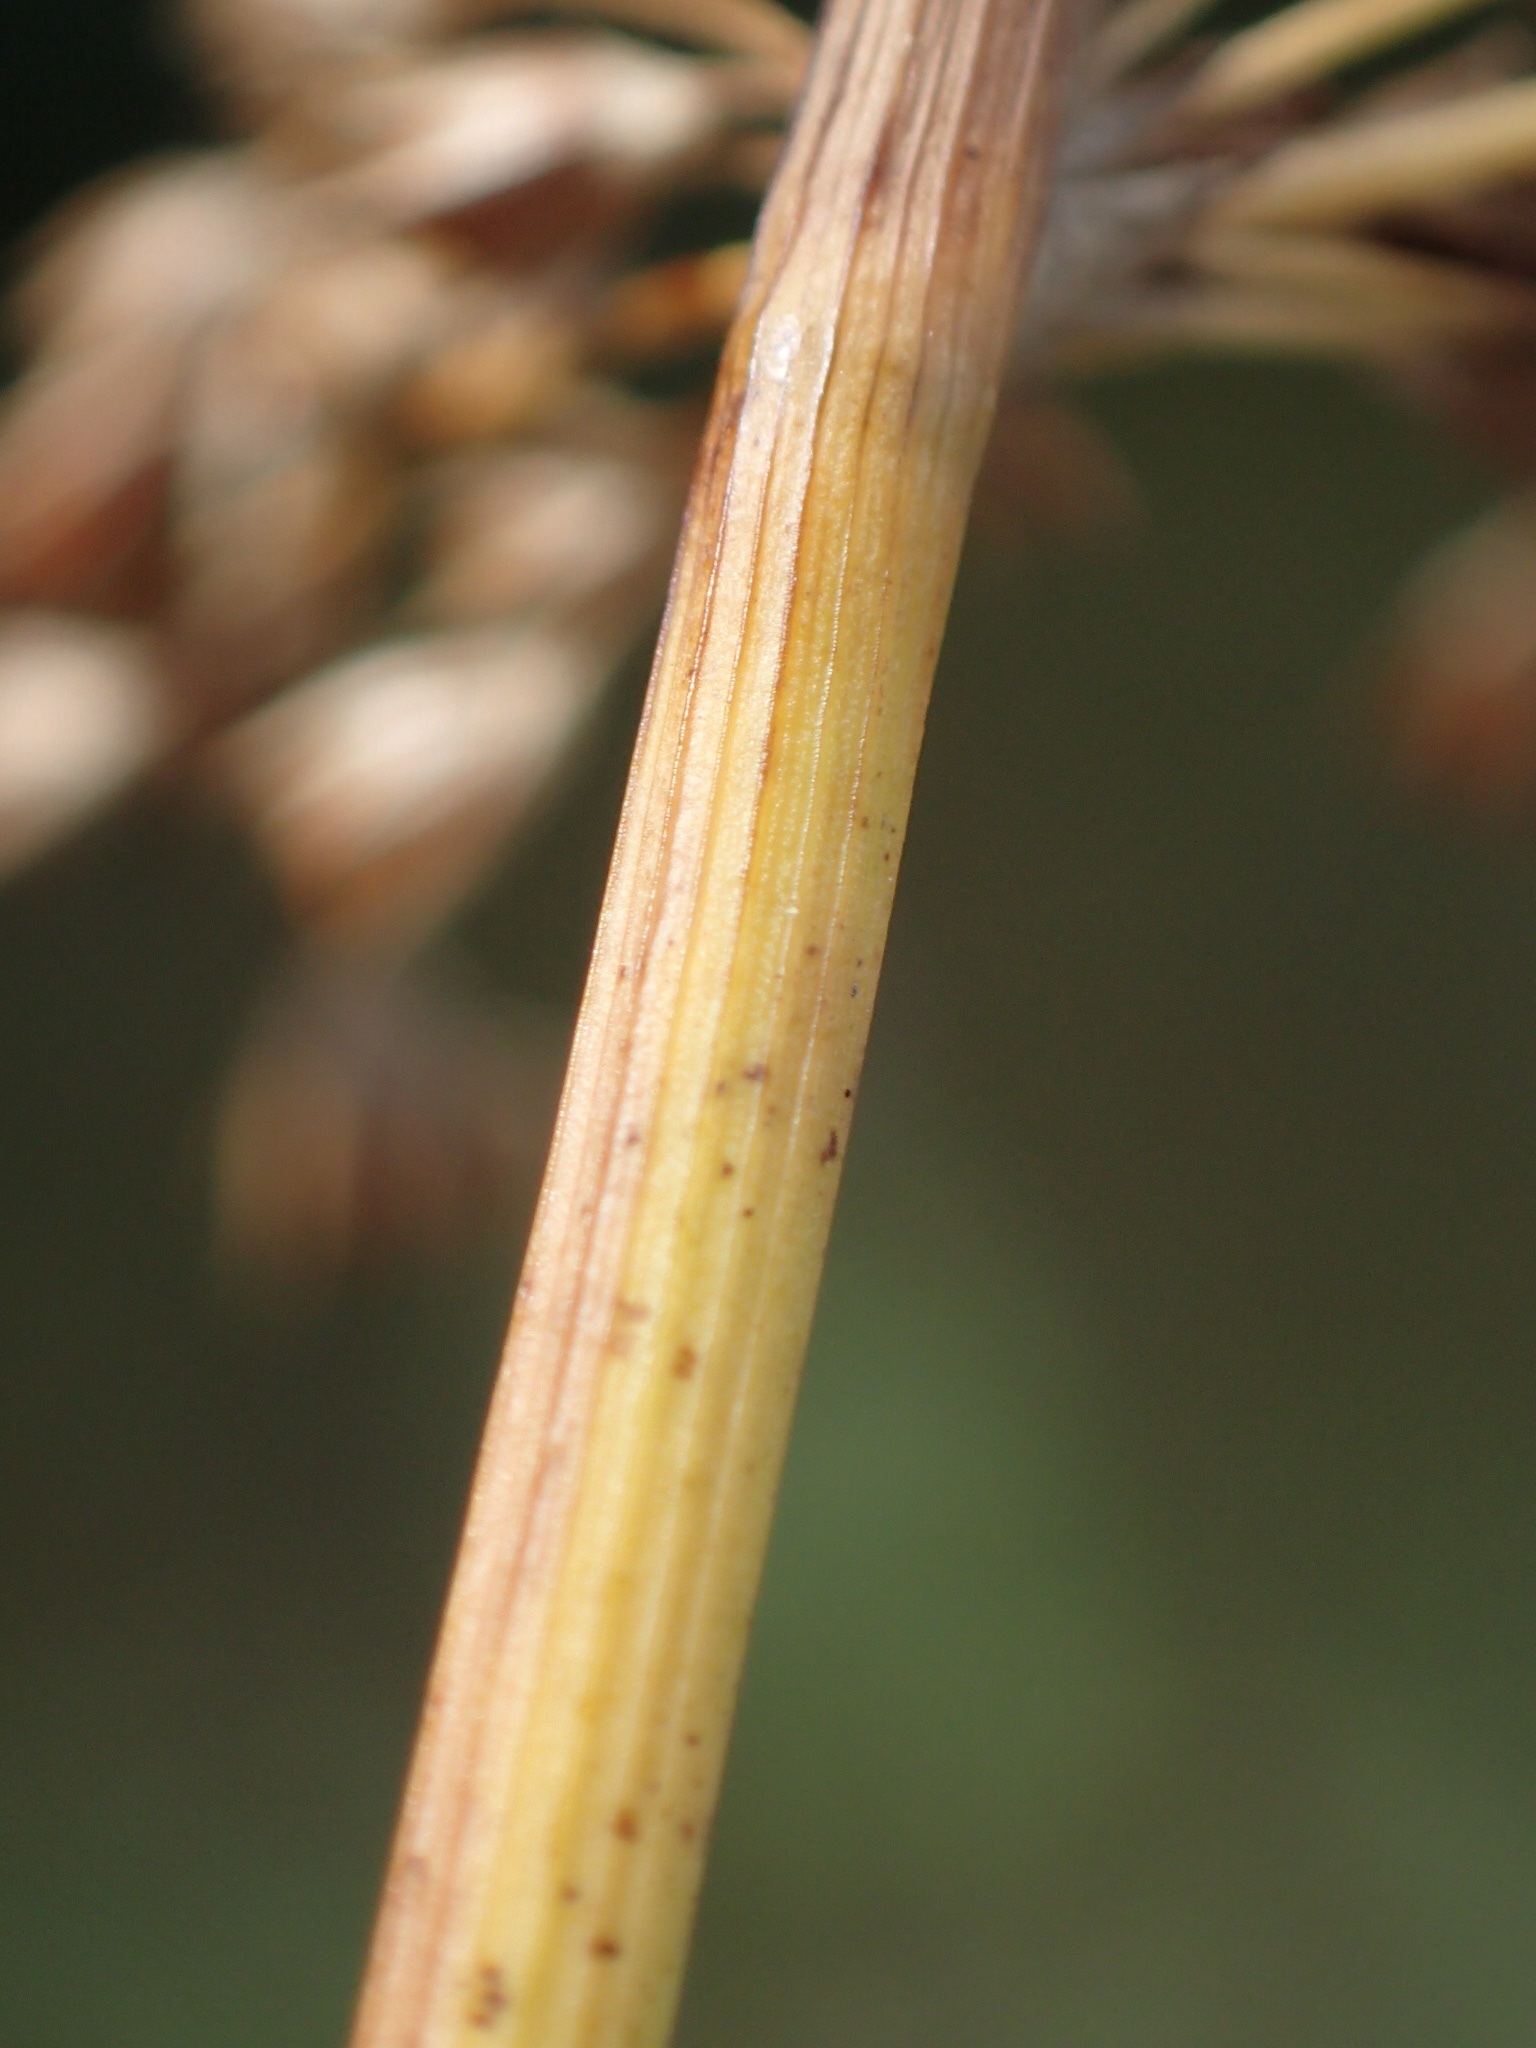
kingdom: Plantae
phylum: Tracheophyta
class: Liliopsida
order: Poales
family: Juncaceae
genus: Juncus
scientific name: Juncus effusus
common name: Soft rush
